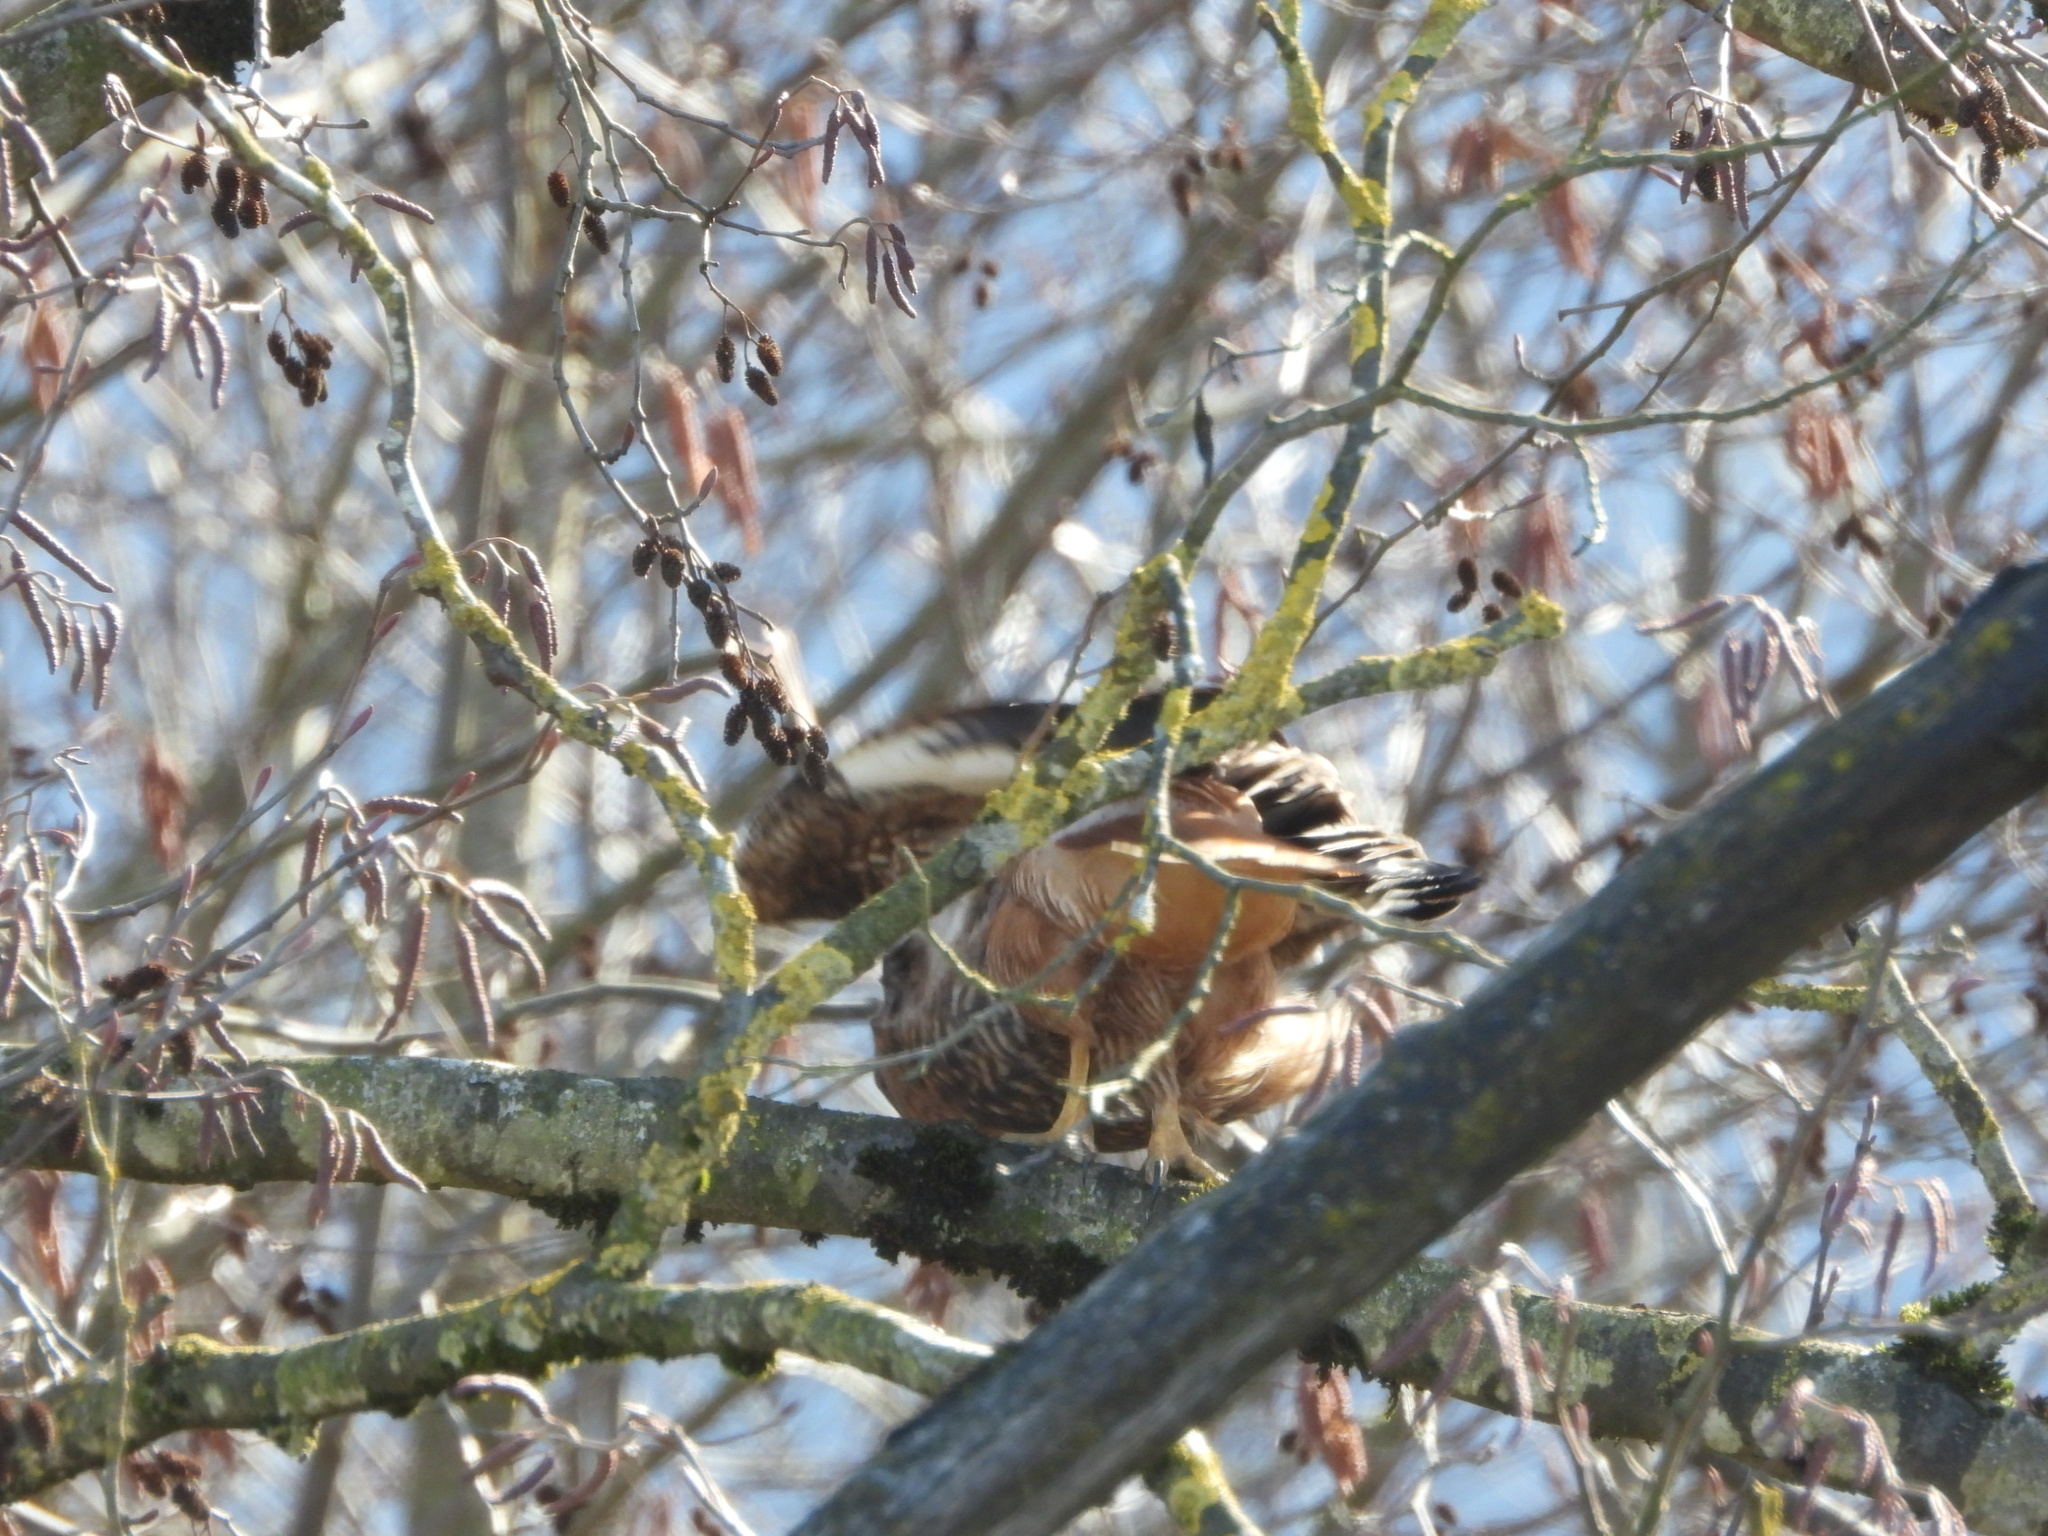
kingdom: Animalia
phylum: Chordata
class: Aves
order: Accipitriformes
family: Accipitridae
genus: Buteo
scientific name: Buteo jamaicensis
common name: Red-tailed hawk
